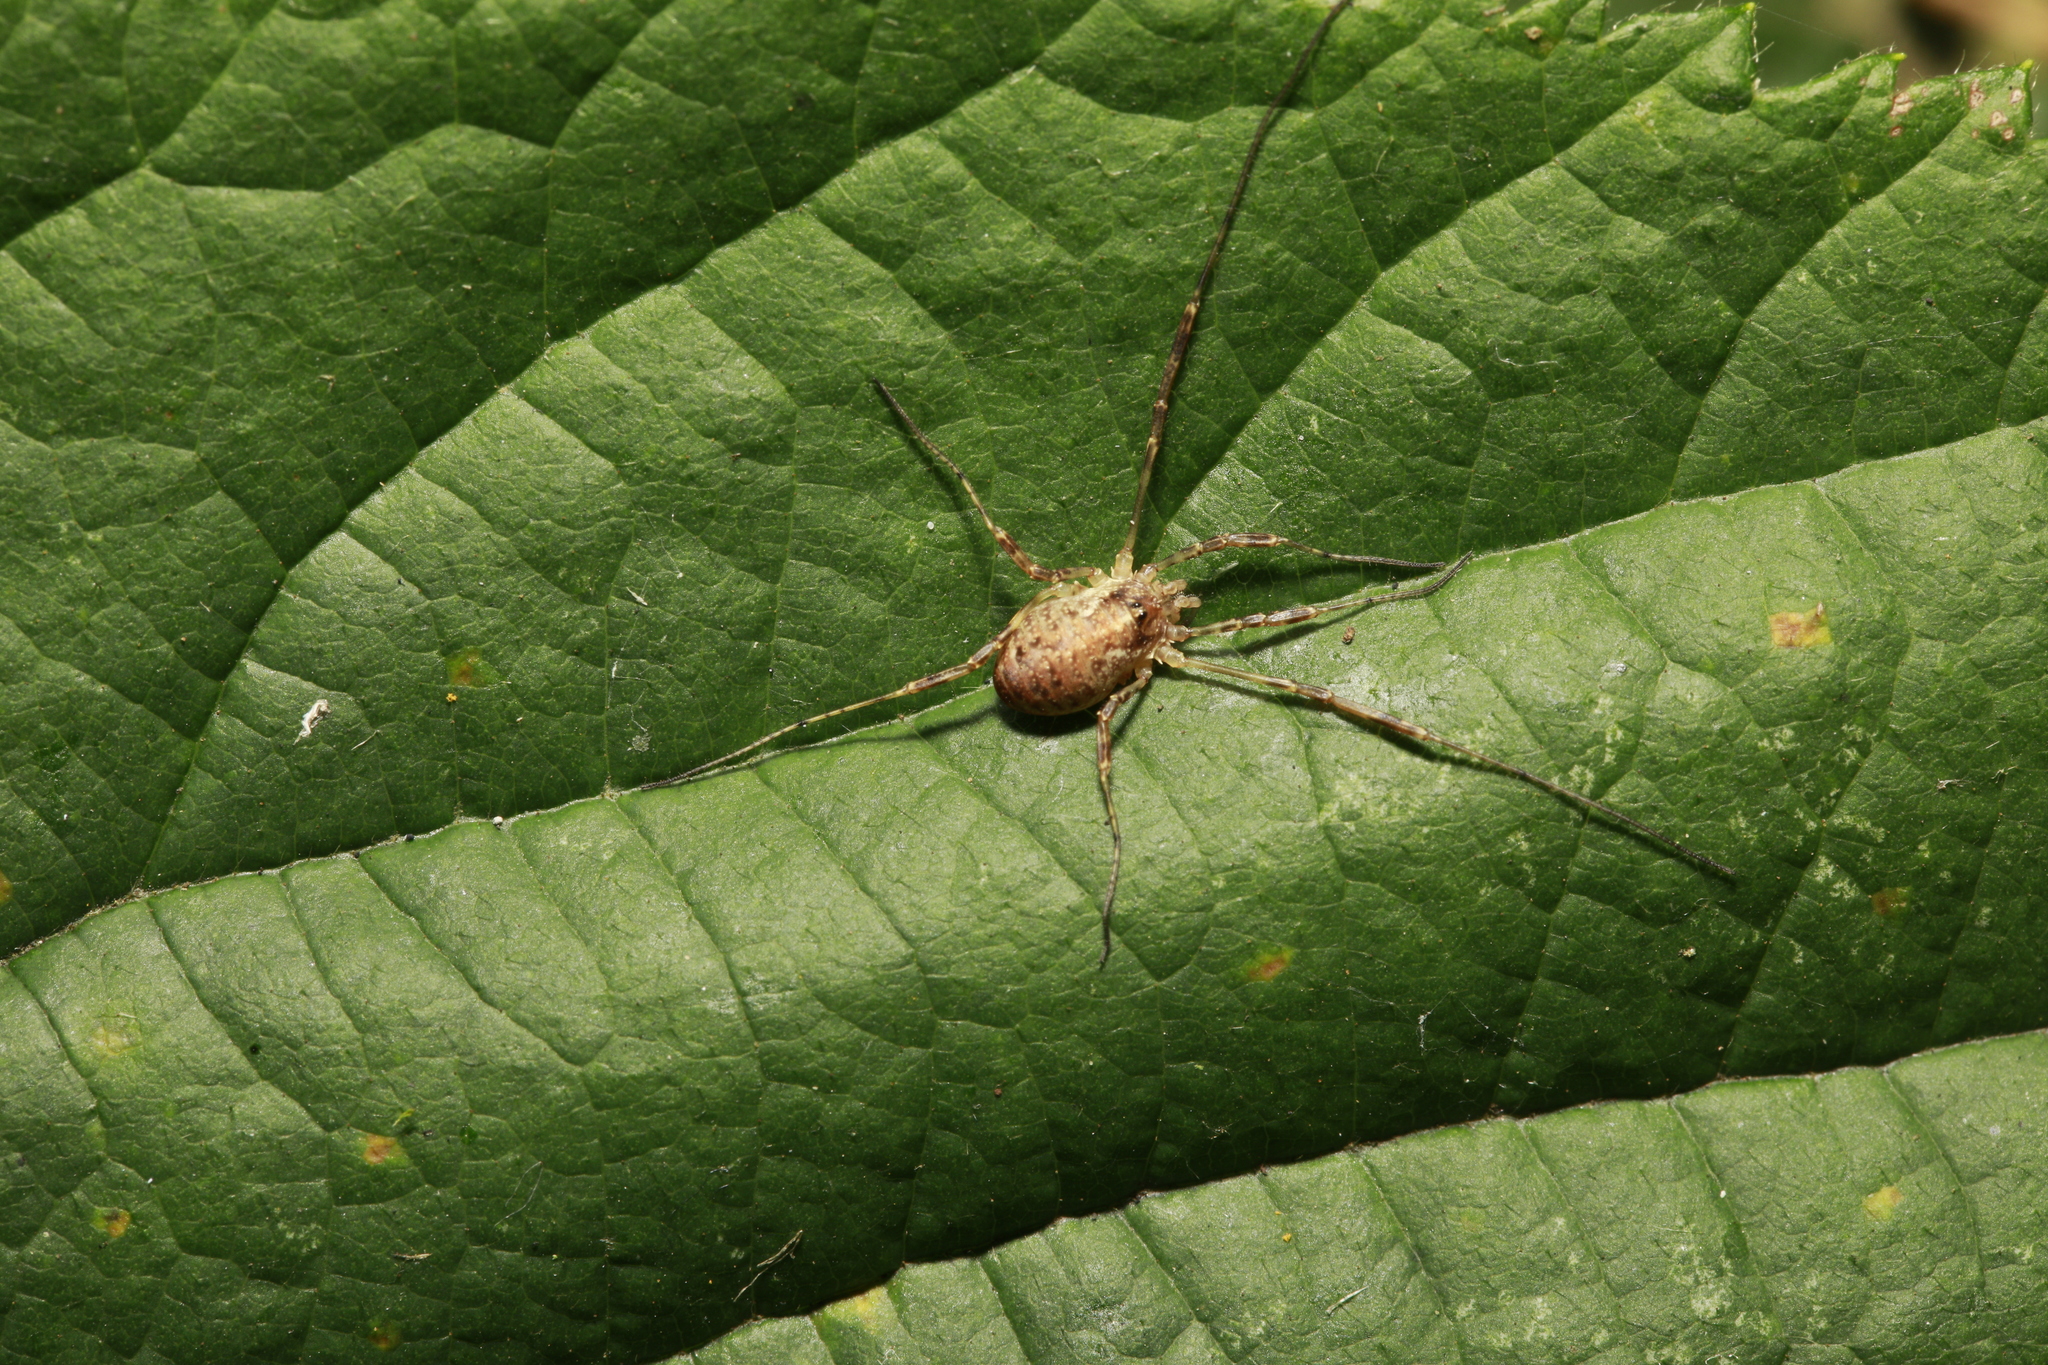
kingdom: Animalia
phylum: Arthropoda
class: Arachnida
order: Opiliones
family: Phalangiidae
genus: Paroligolophus
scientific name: Paroligolophus agrestis
